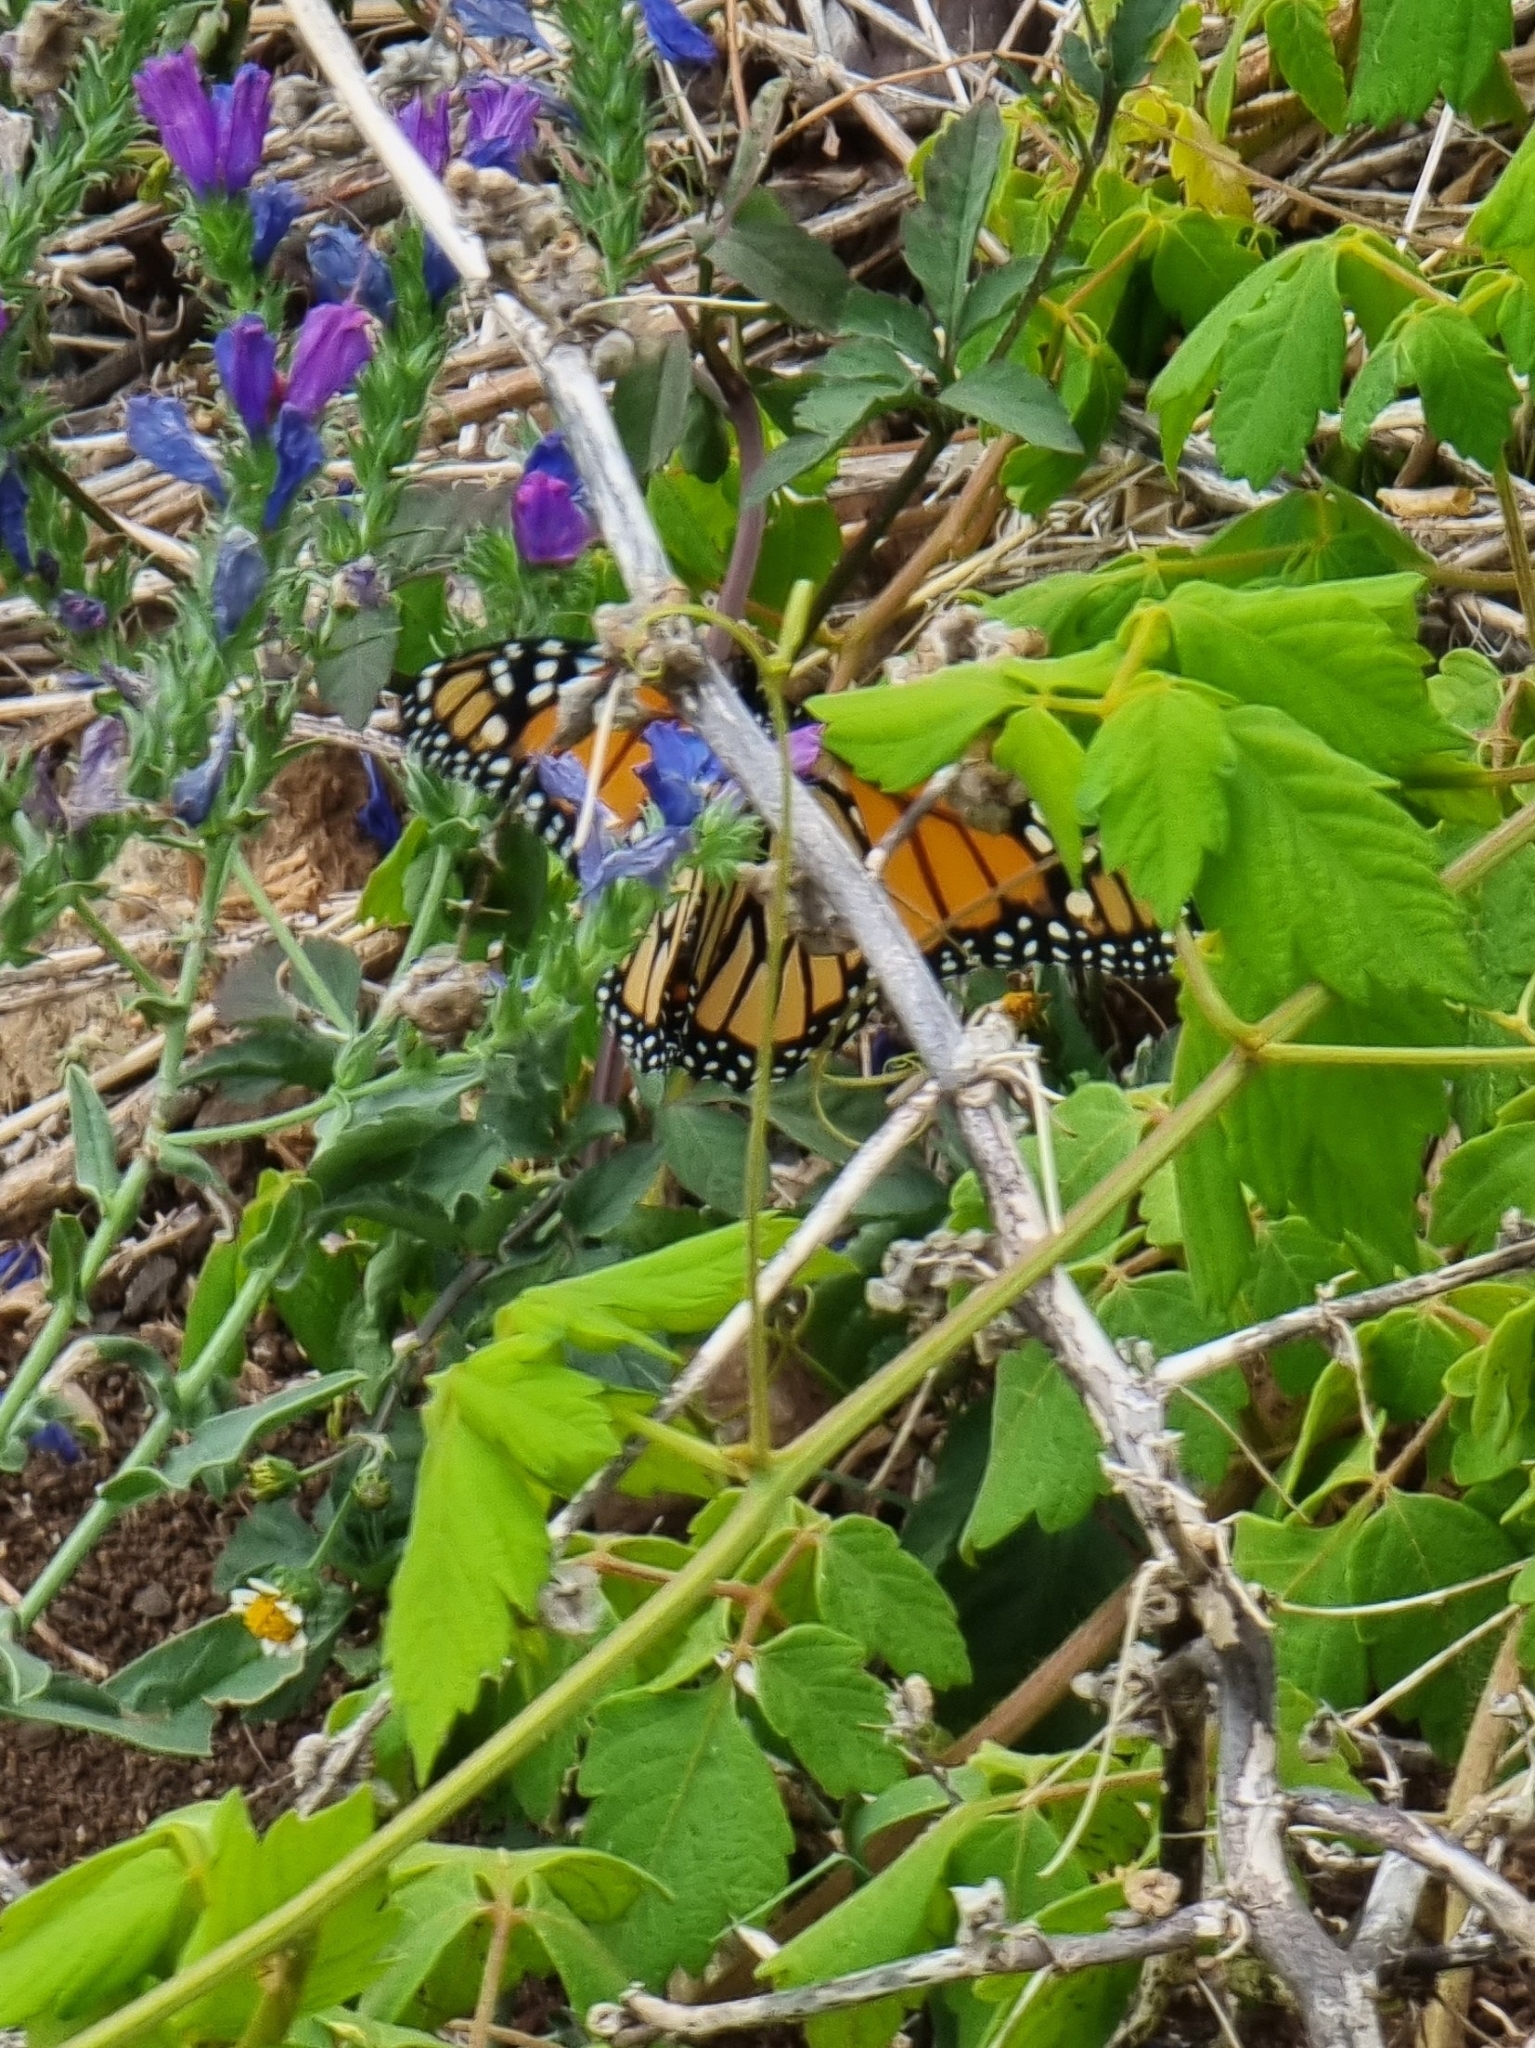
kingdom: Animalia
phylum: Arthropoda
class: Insecta
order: Lepidoptera
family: Nymphalidae
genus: Danaus
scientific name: Danaus plexippus
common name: Monarch
